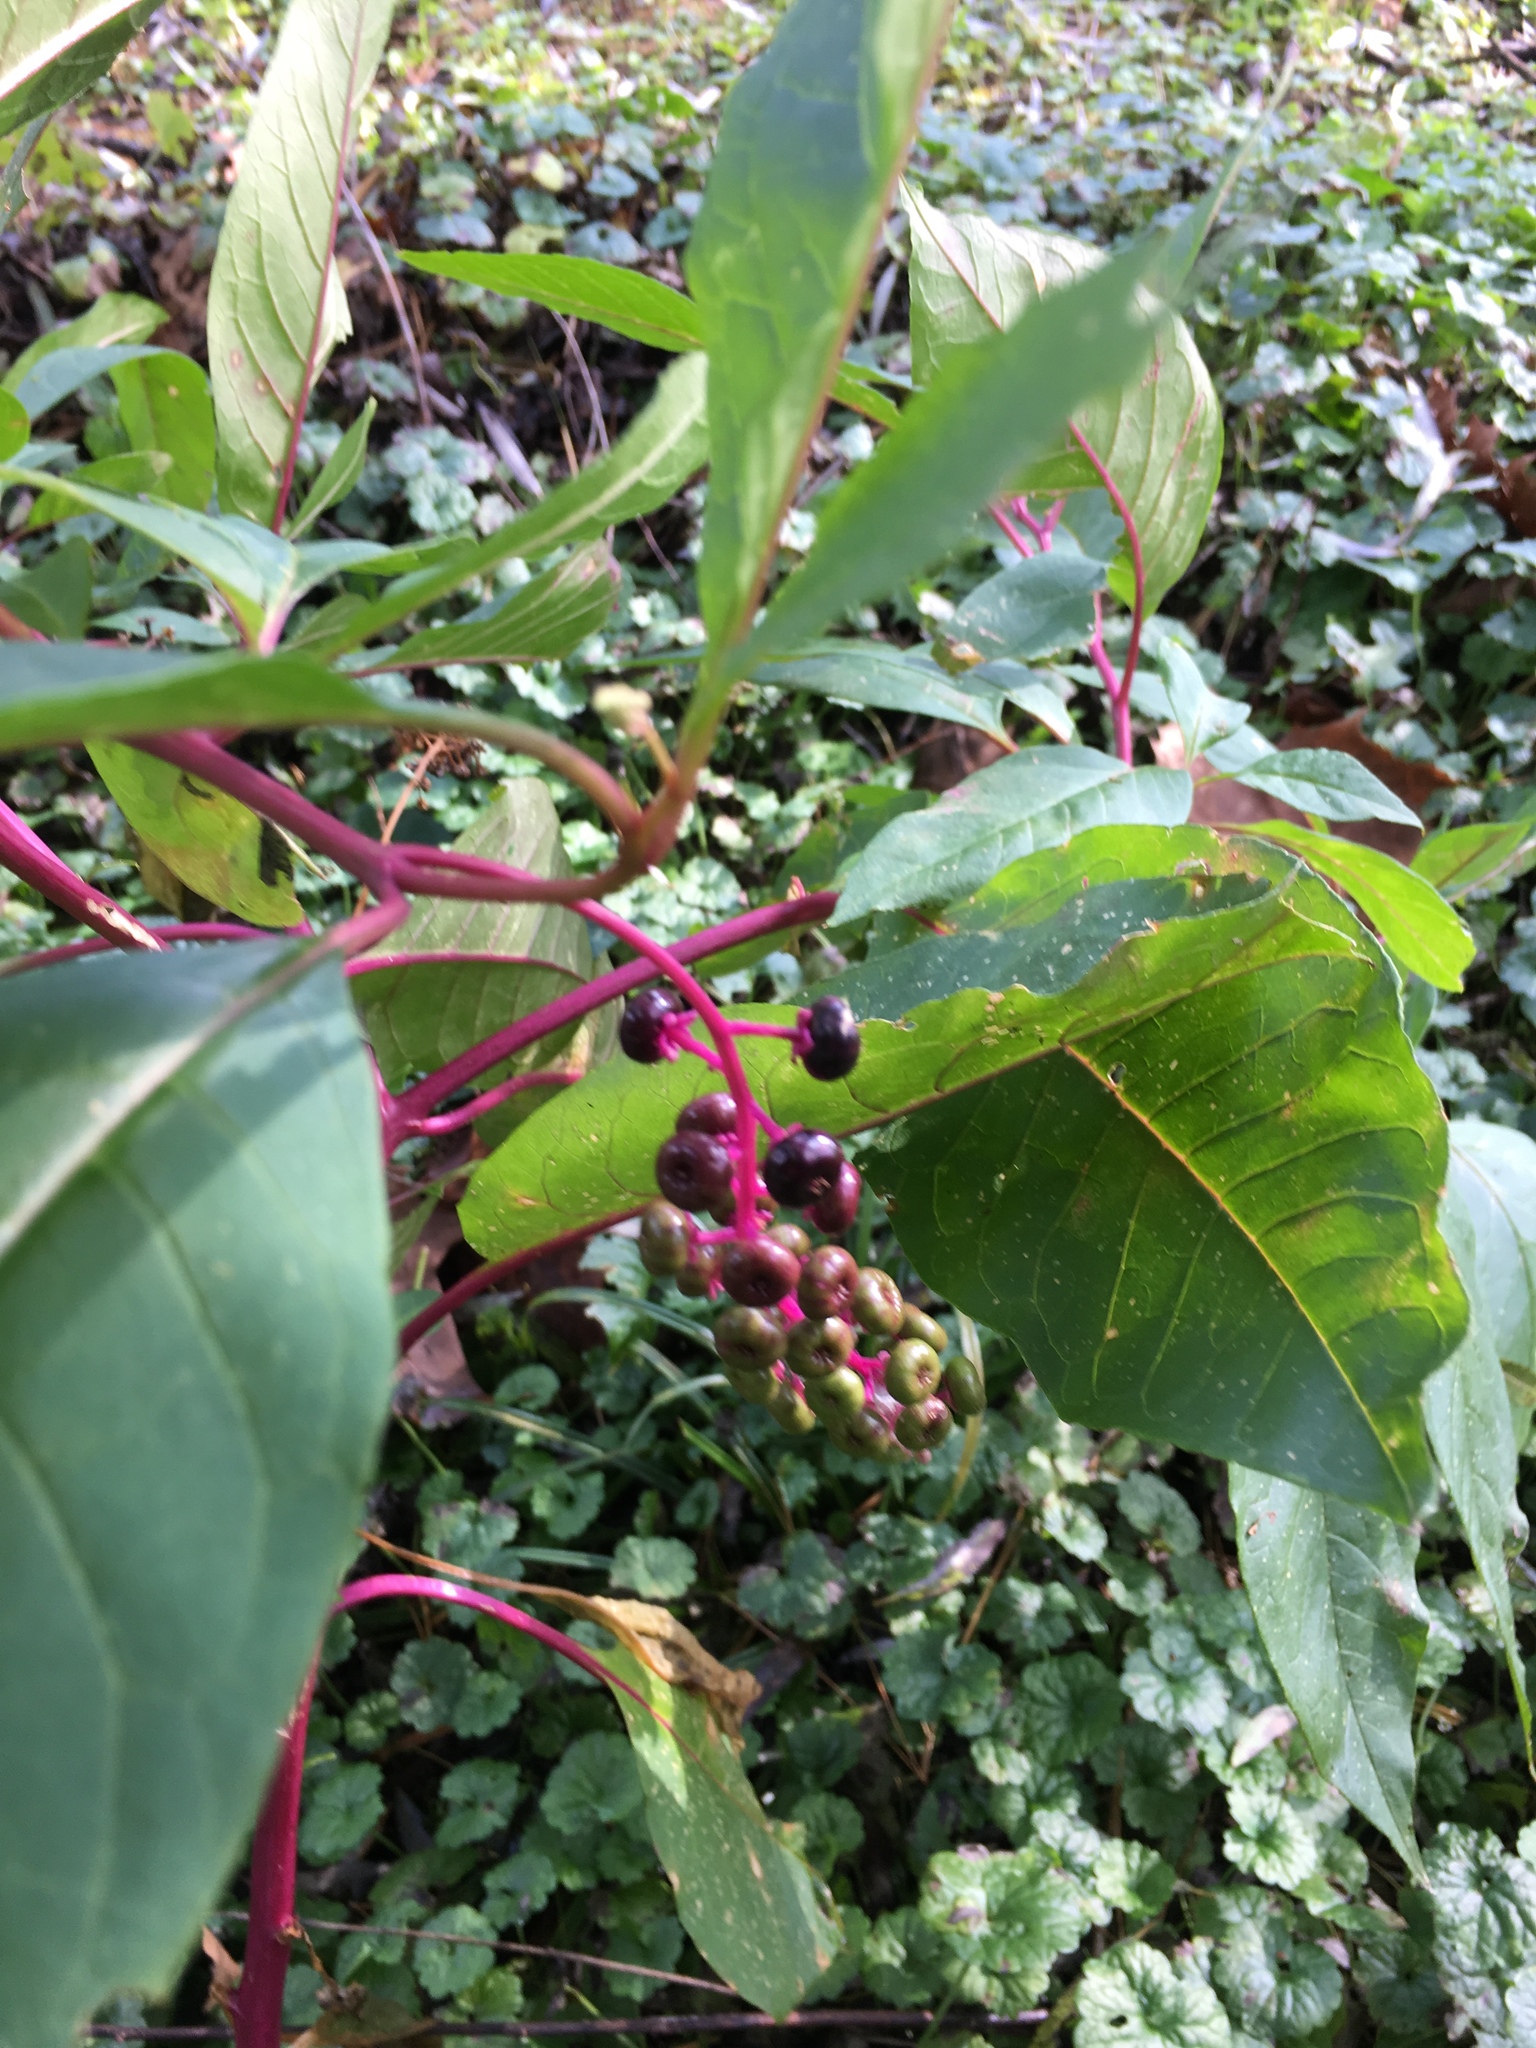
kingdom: Plantae
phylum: Tracheophyta
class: Magnoliopsida
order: Caryophyllales
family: Phytolaccaceae
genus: Phytolacca
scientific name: Phytolacca americana
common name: American pokeweed
